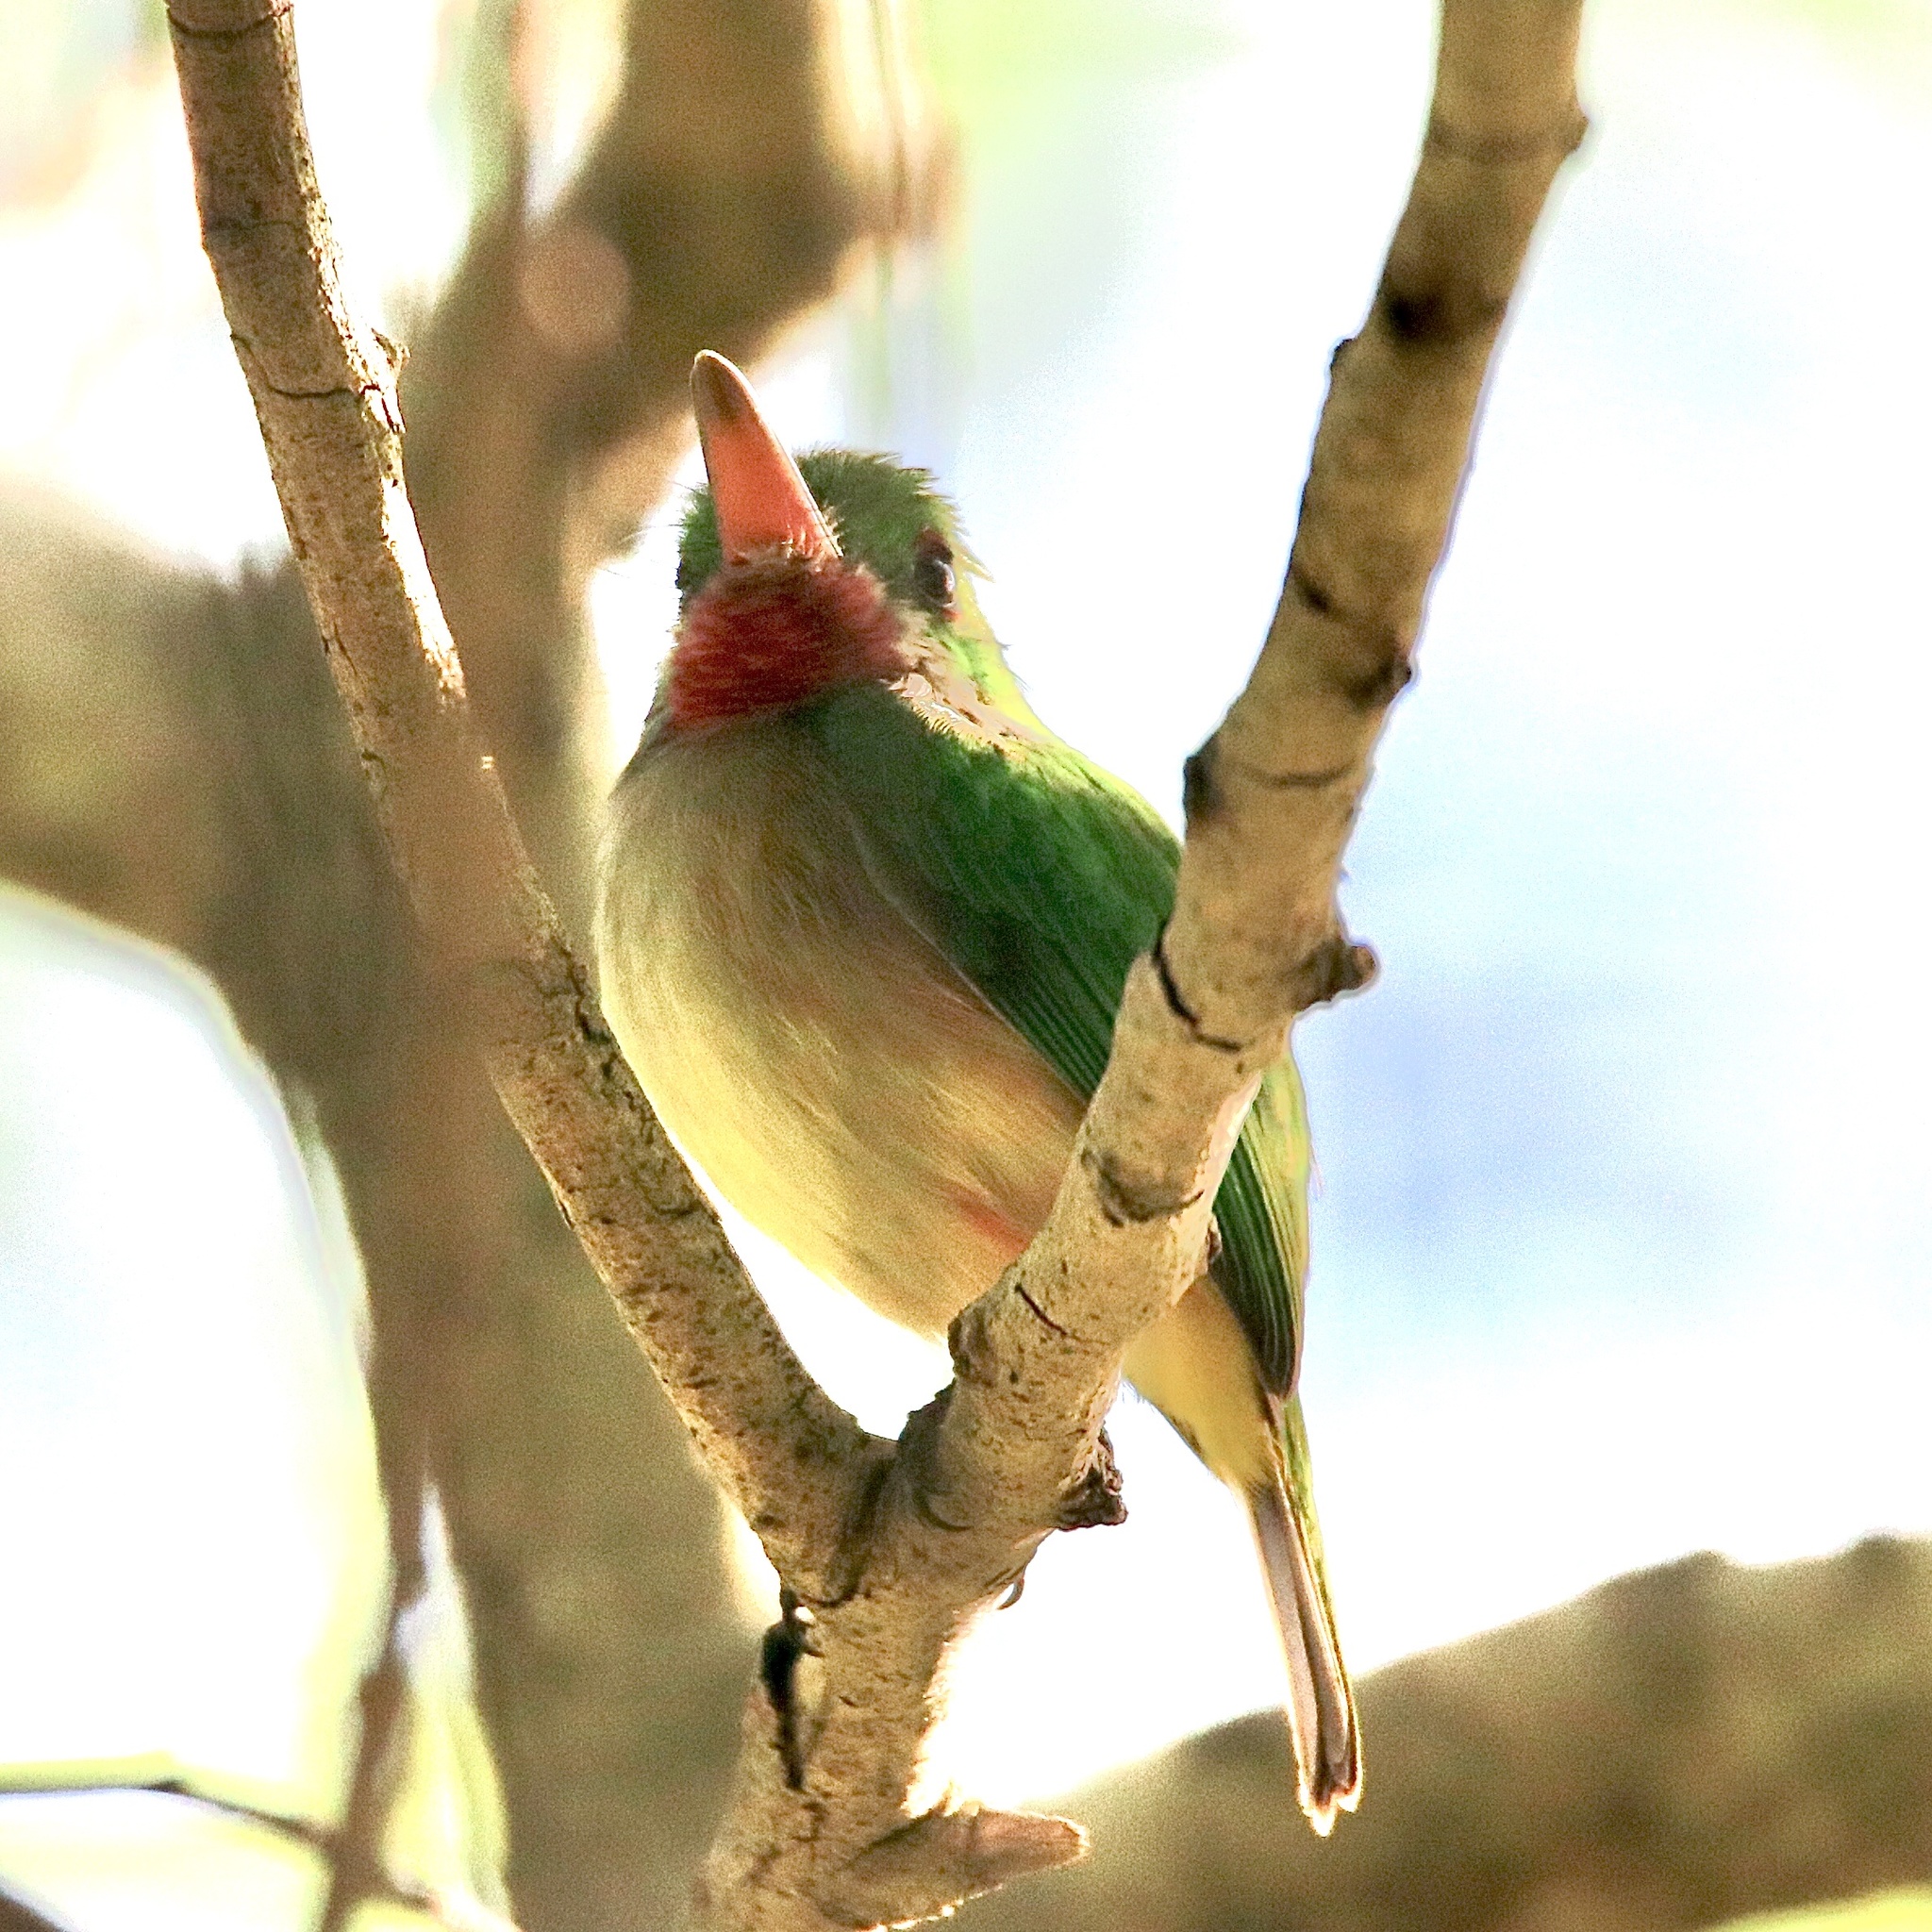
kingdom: Animalia
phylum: Chordata
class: Aves
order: Coraciiformes
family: Todidae
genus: Todus
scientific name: Todus subulatus
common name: Broad-billed tody
